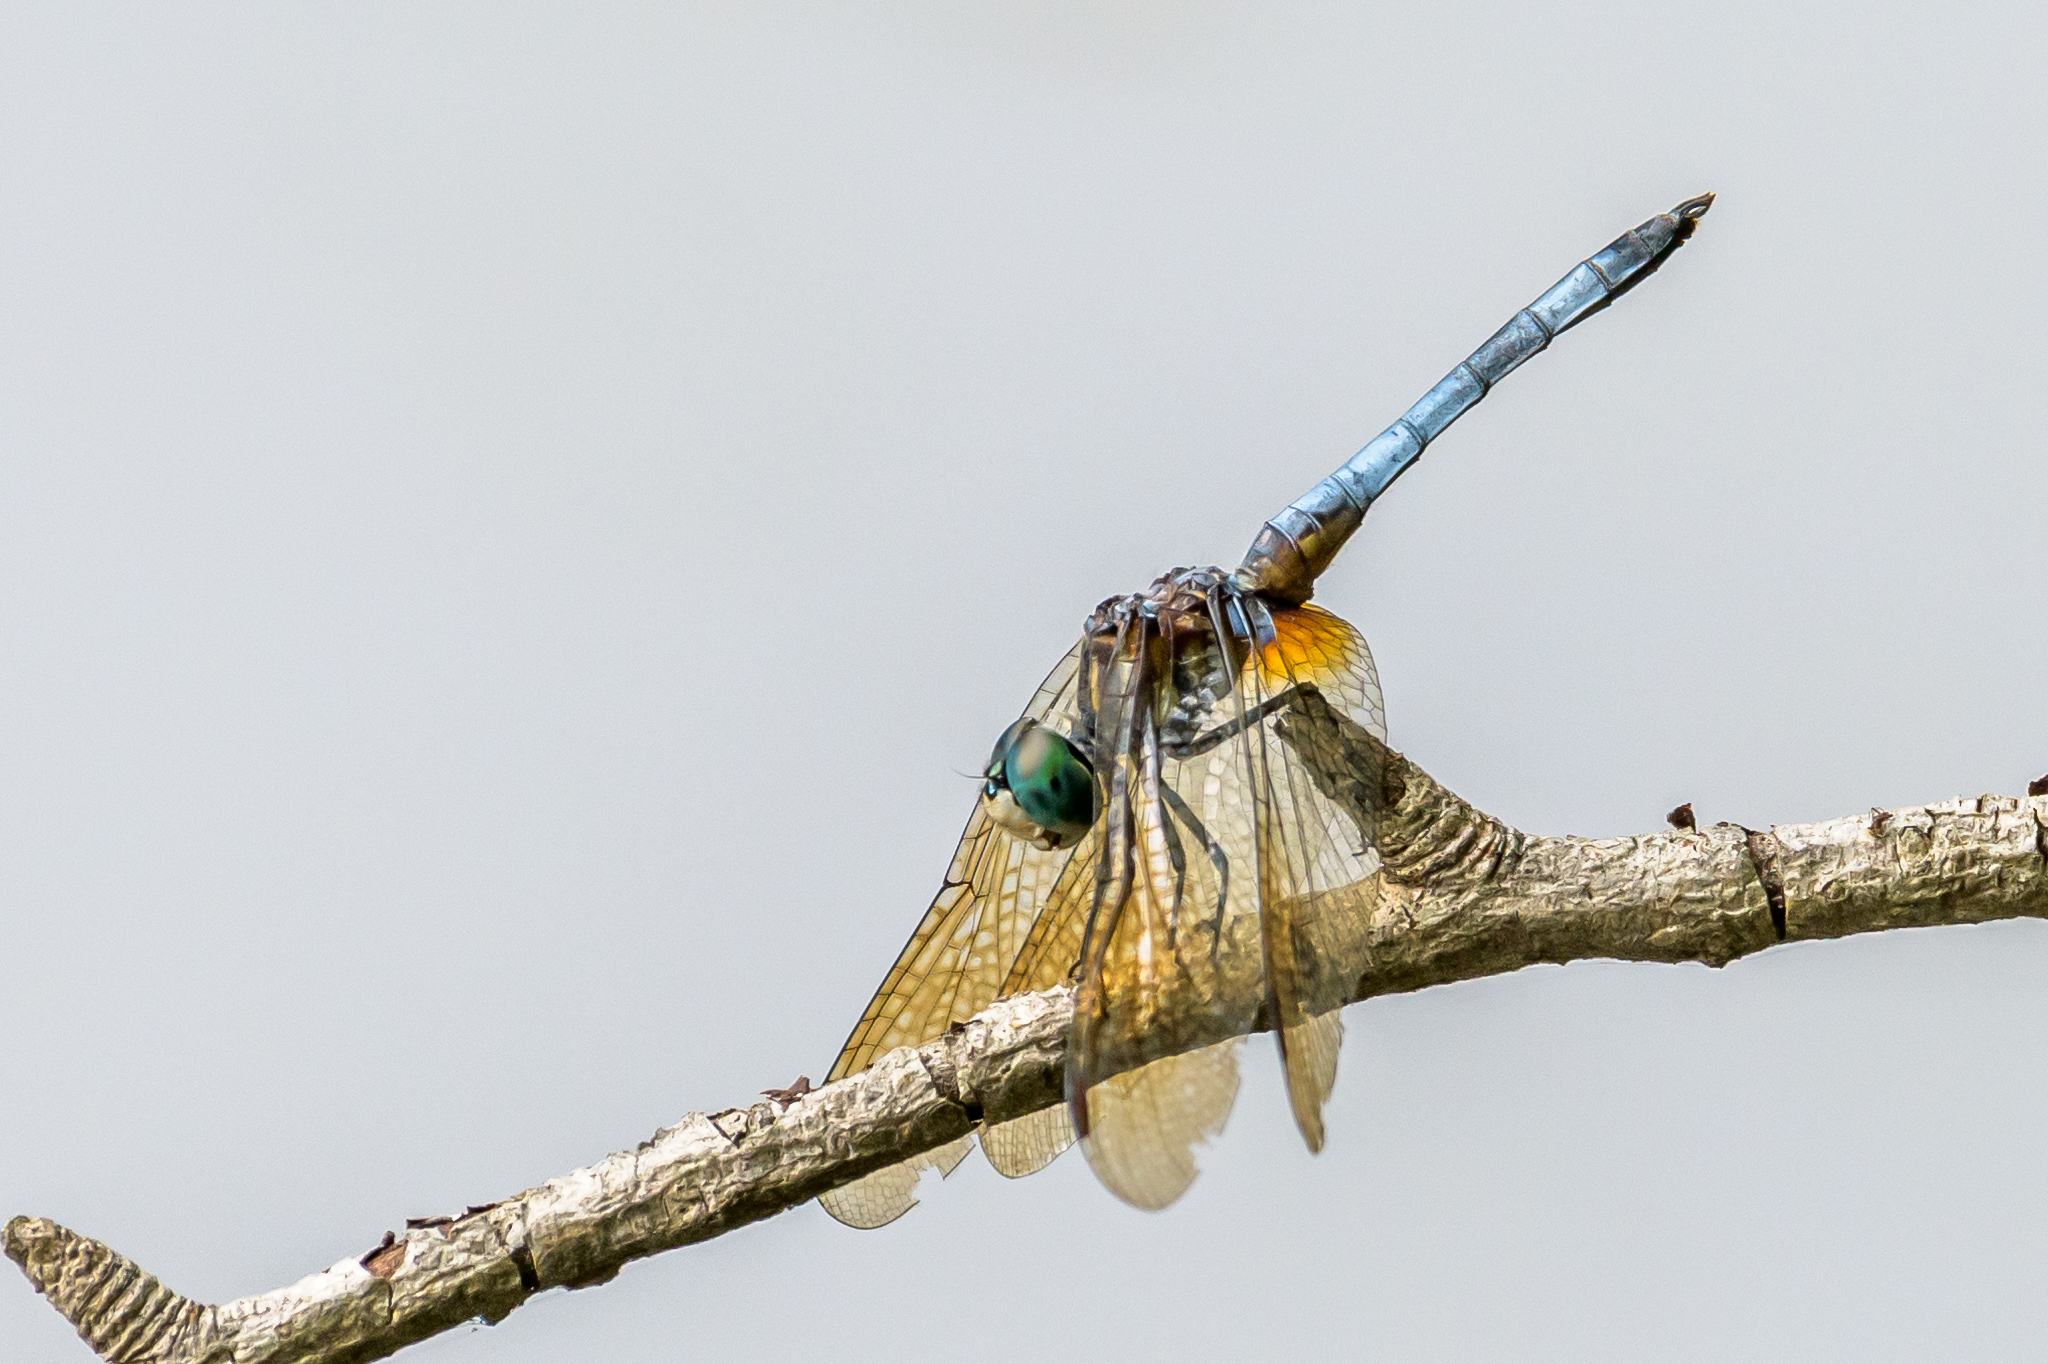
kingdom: Animalia
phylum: Arthropoda
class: Insecta
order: Odonata
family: Libellulidae
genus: Pachydiplax
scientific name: Pachydiplax longipennis
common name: Blue dasher
